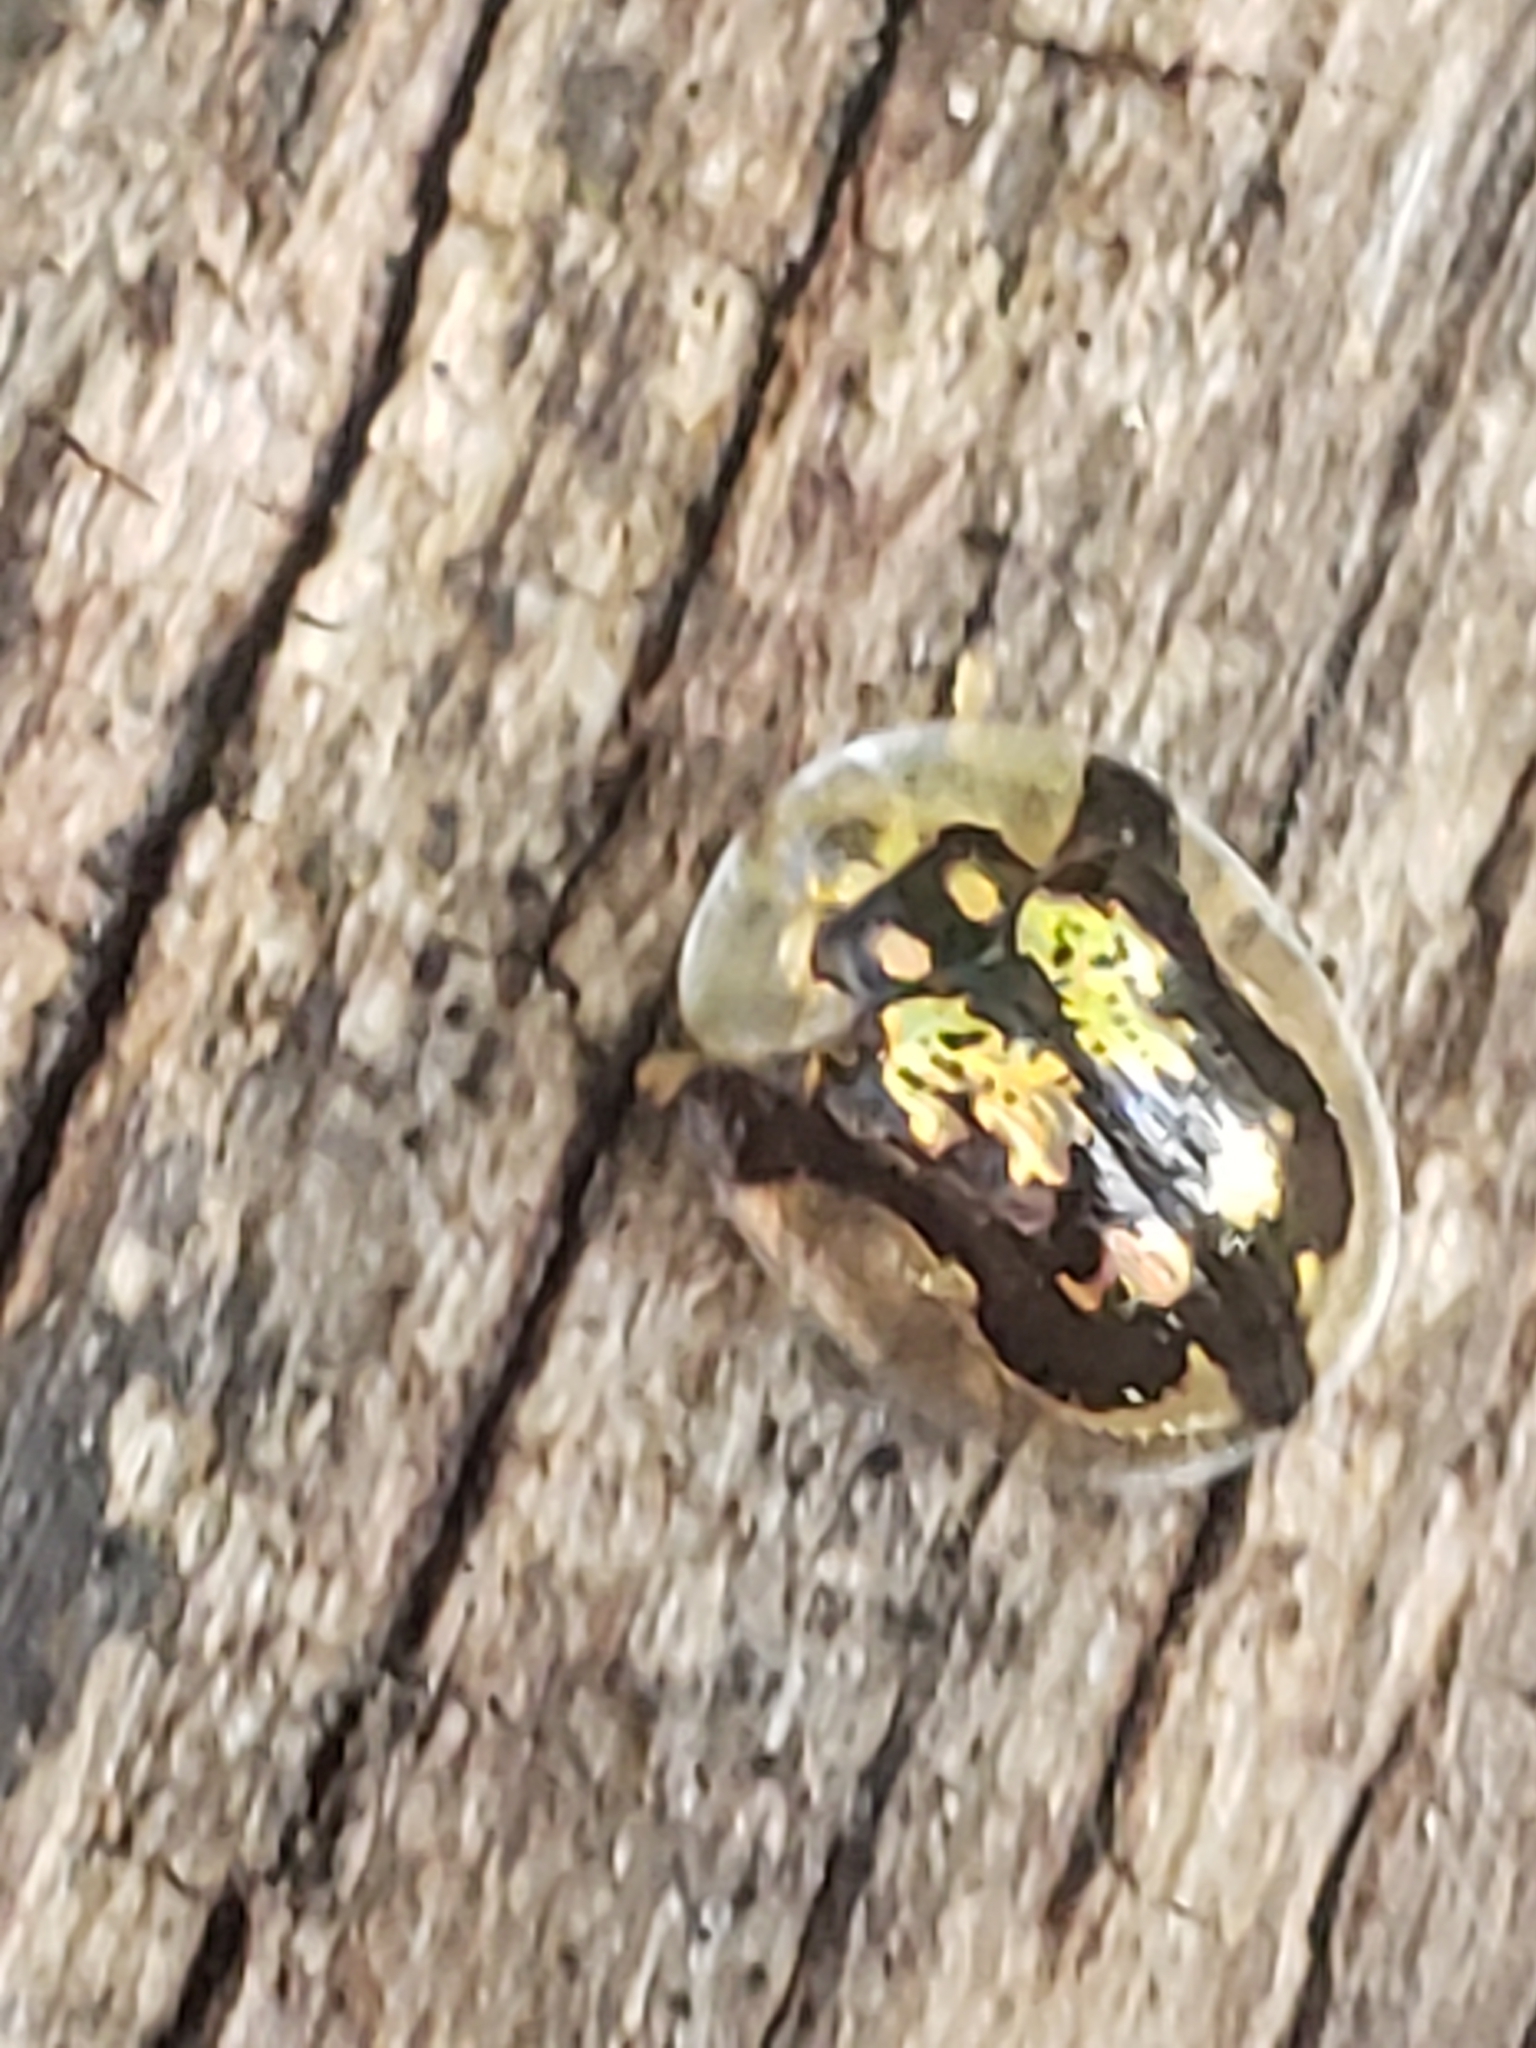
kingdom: Animalia
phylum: Arthropoda
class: Insecta
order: Coleoptera
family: Chrysomelidae
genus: Deloyala
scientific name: Deloyala guttata
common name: Mottled tortoise beetle
